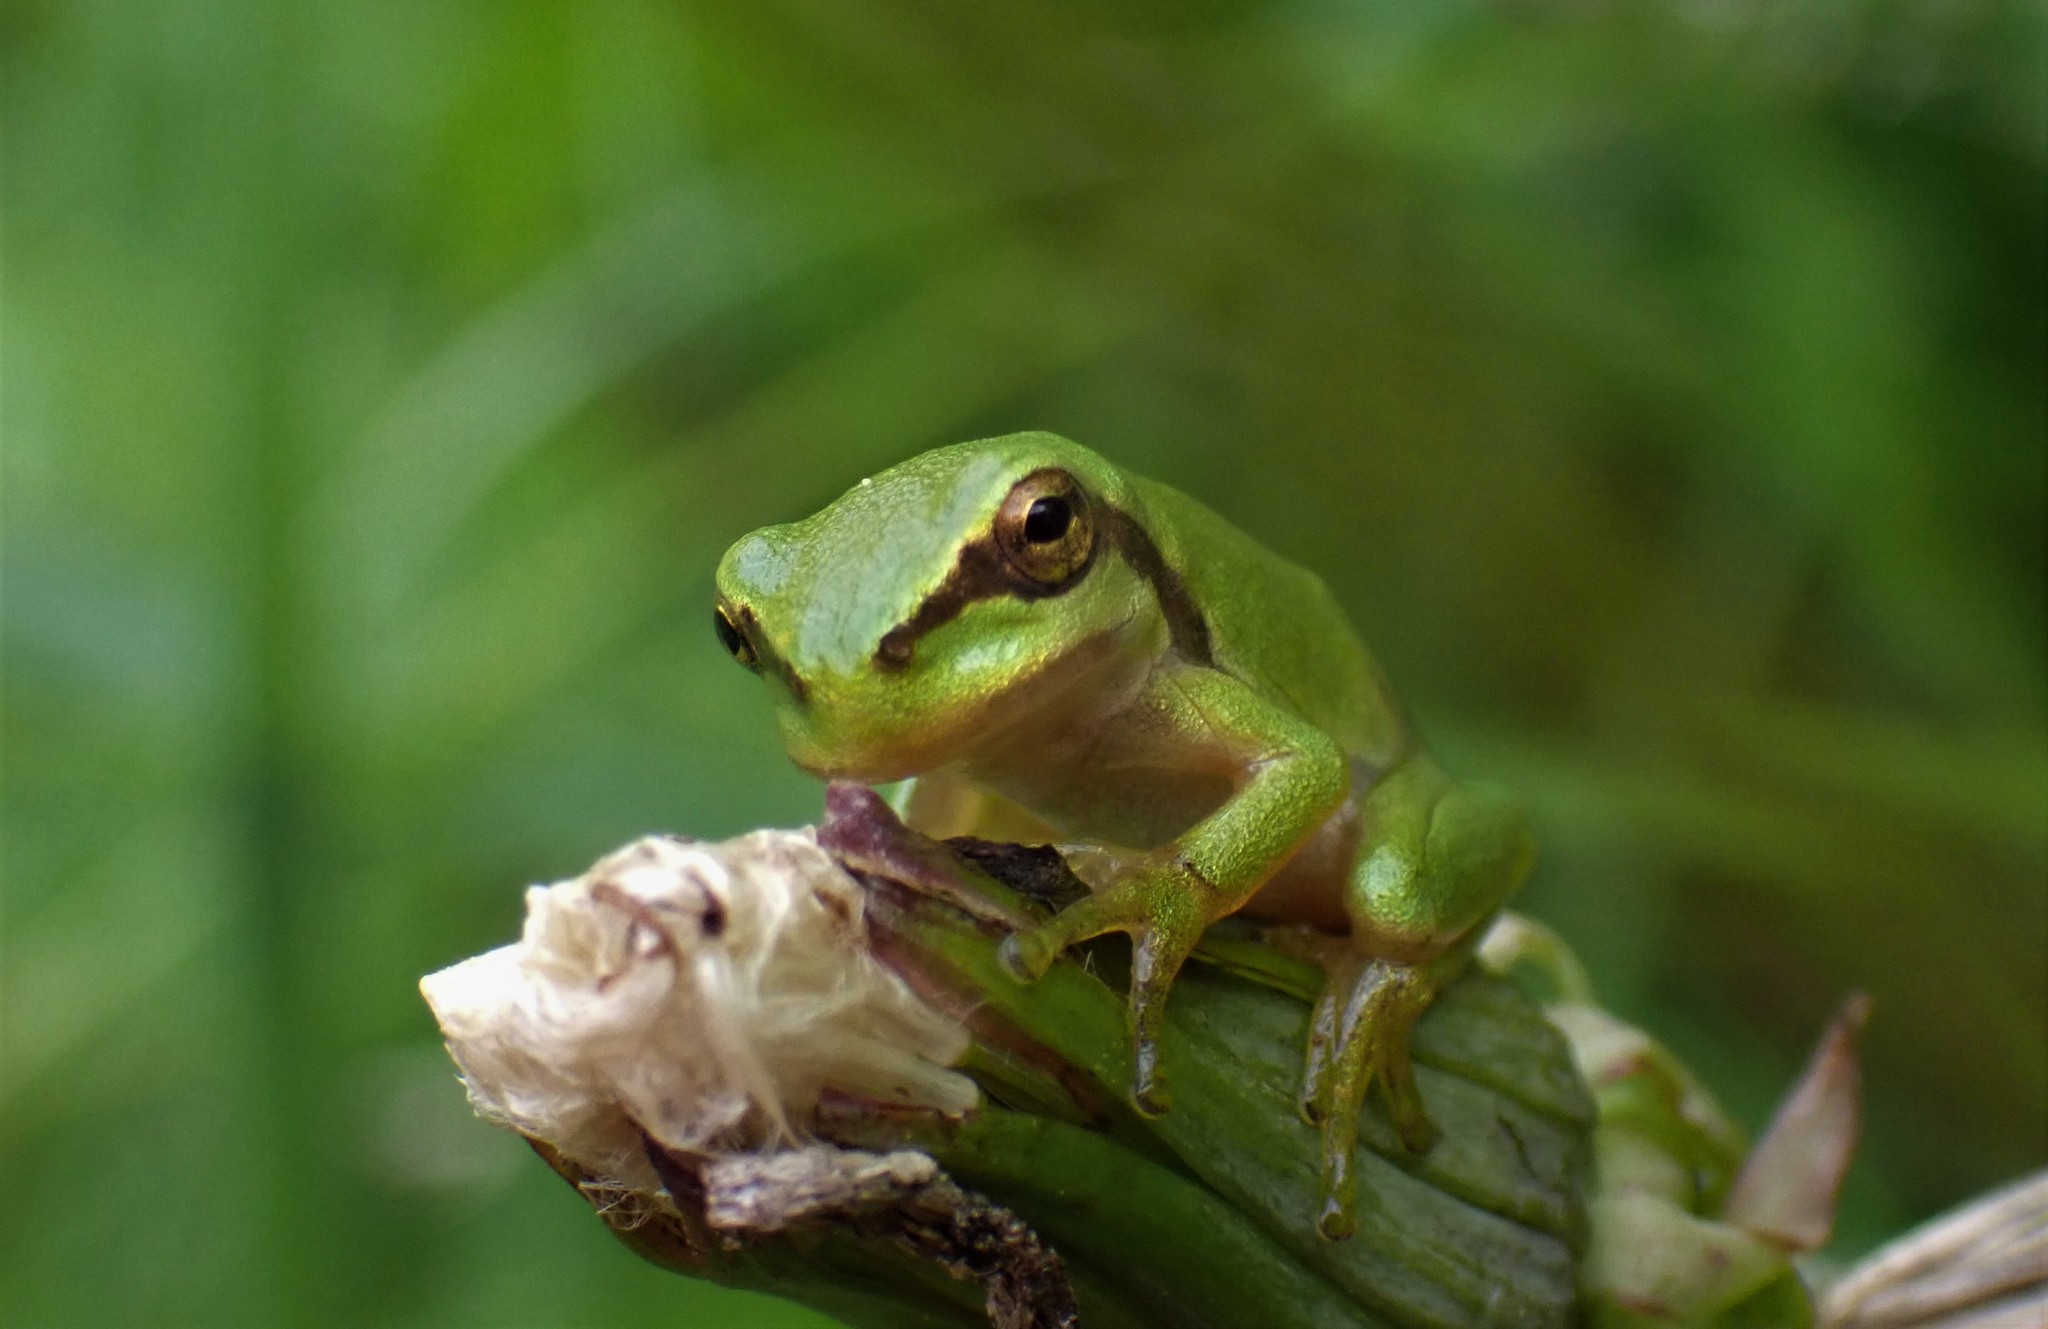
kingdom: Animalia
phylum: Chordata
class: Amphibia
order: Anura
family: Hylidae
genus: Hyla
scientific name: Hyla arborea
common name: Common tree frog
